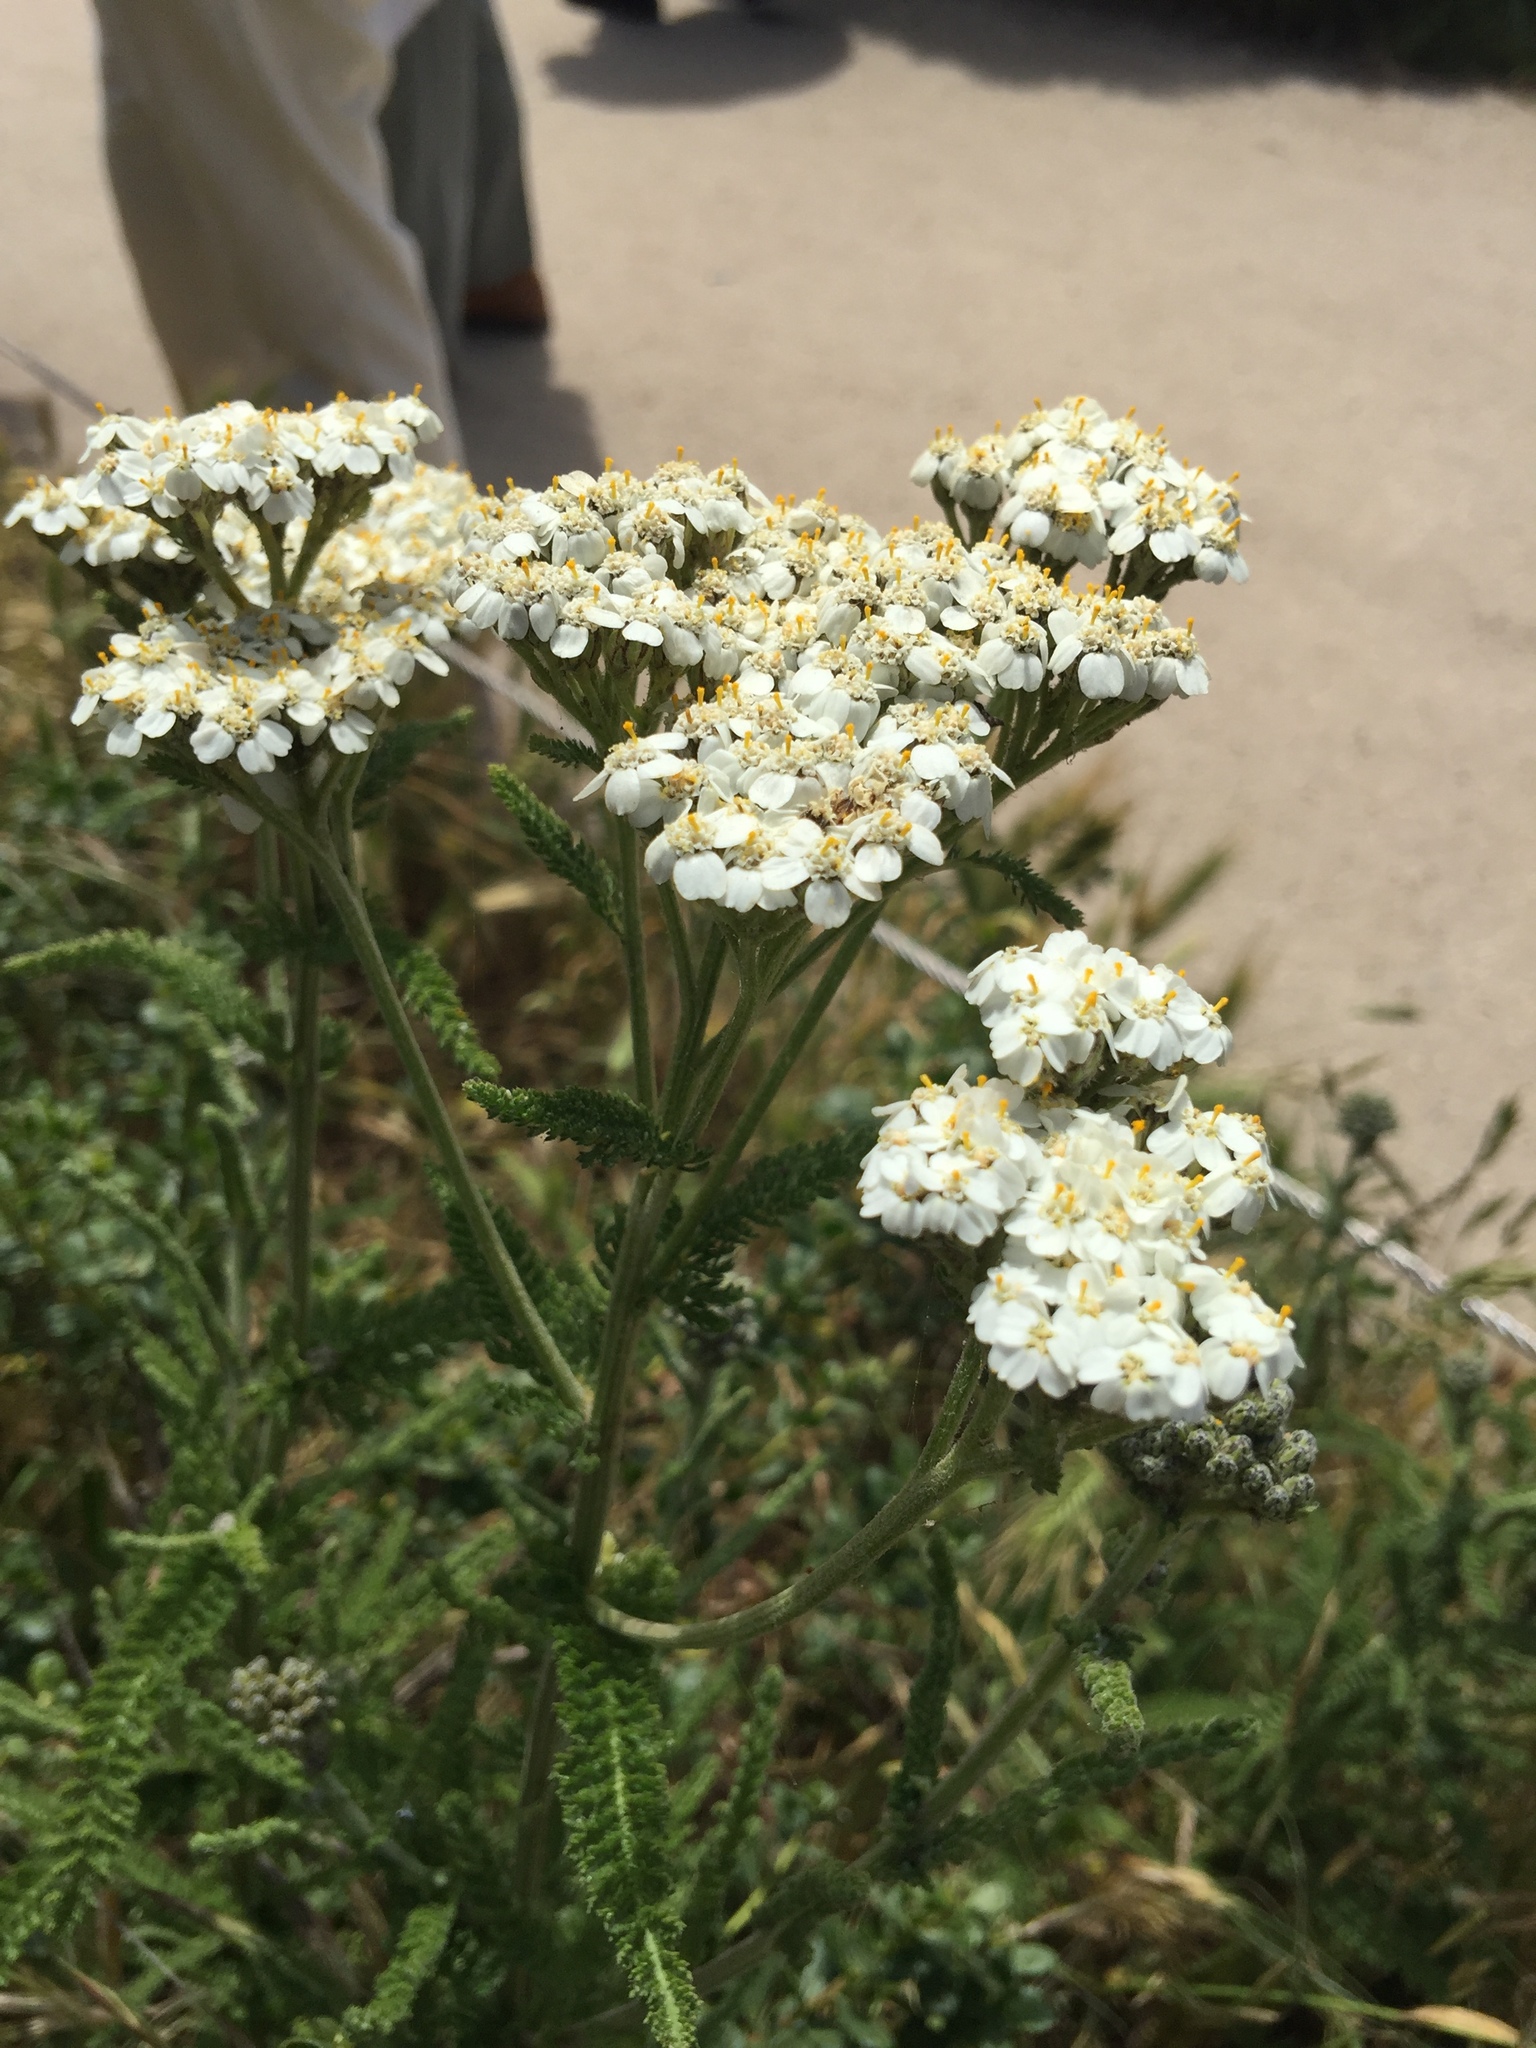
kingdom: Plantae
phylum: Tracheophyta
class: Magnoliopsida
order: Asterales
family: Asteraceae
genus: Achillea
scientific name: Achillea millefolium
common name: Yarrow
